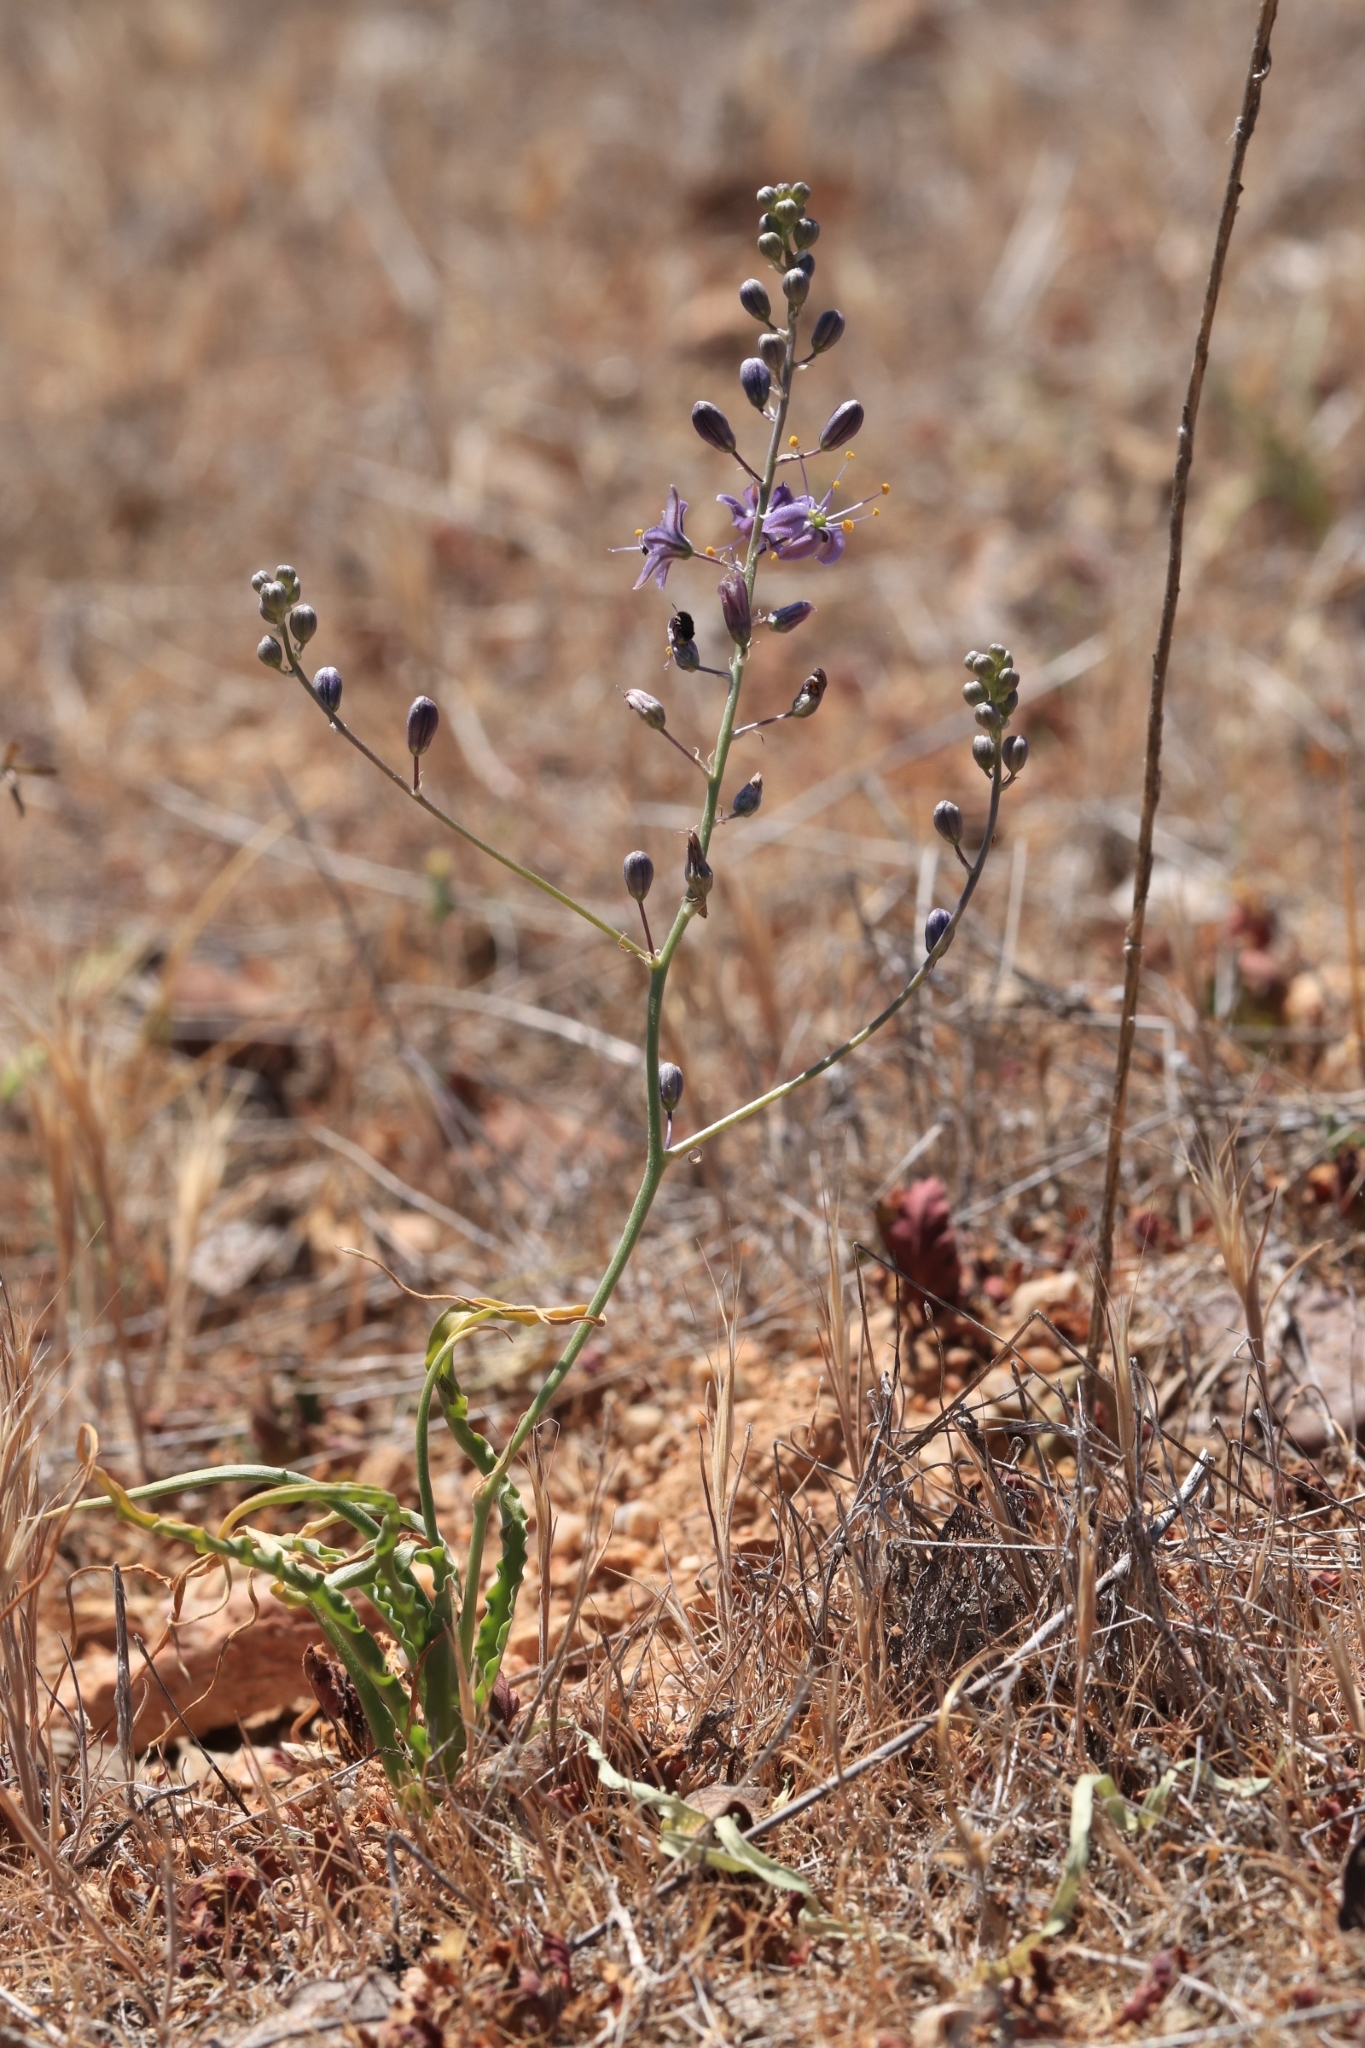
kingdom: Plantae
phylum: Tracheophyta
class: Liliopsida
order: Asparagales
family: Asparagaceae
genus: Hooveria
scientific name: Hooveria purpurea
